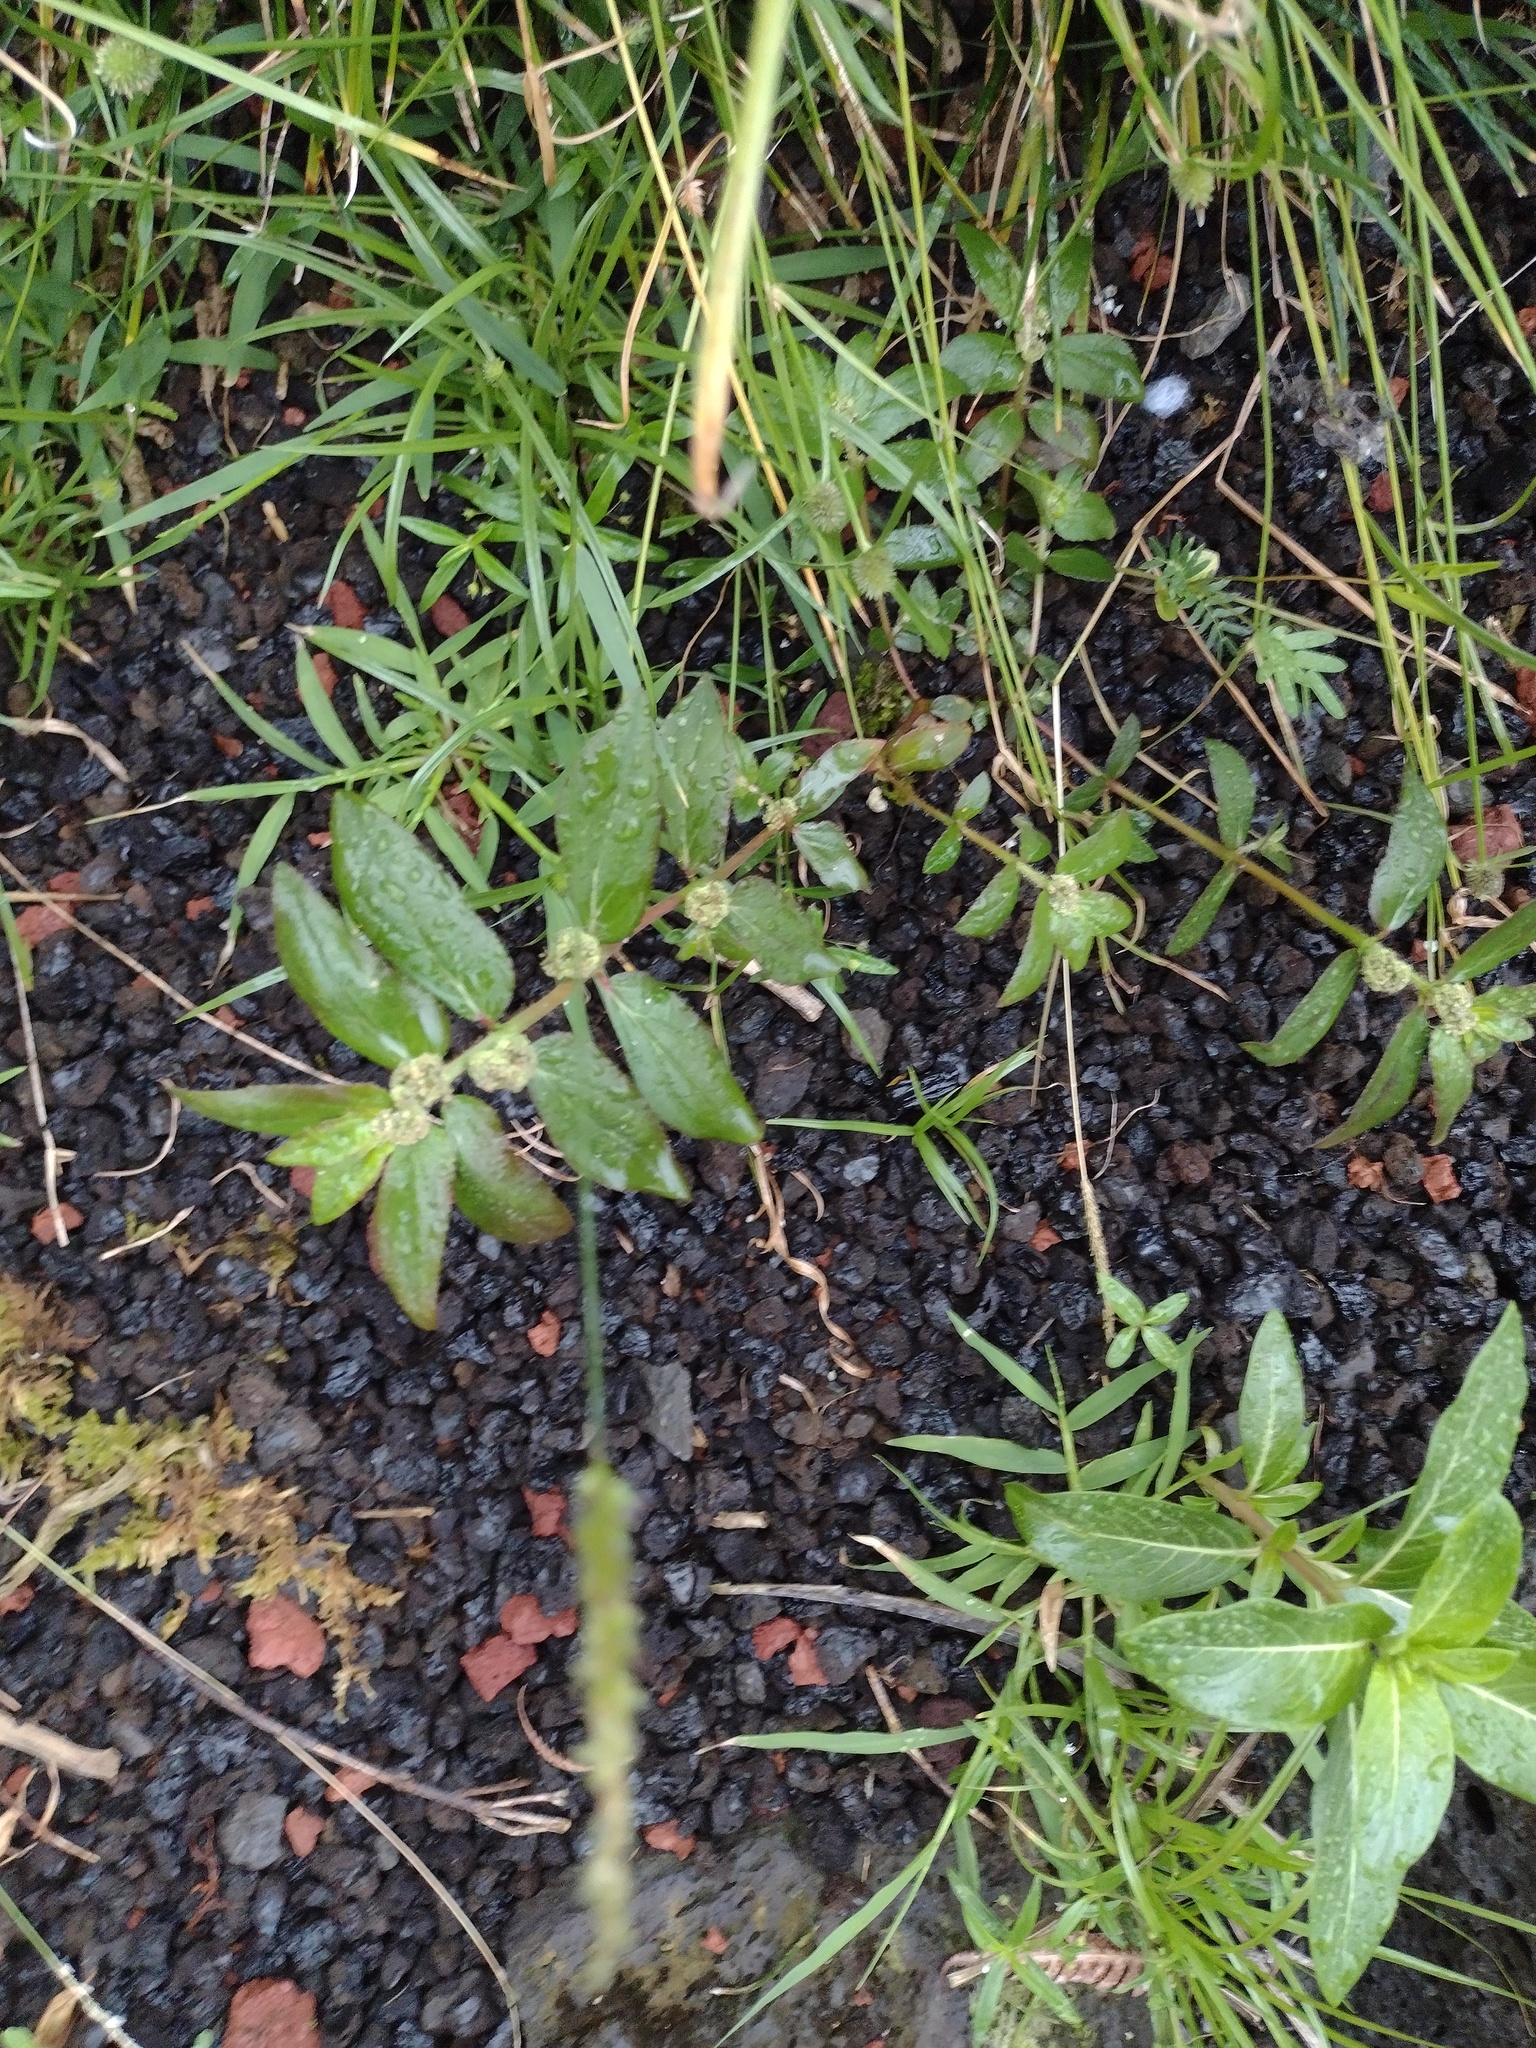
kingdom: Plantae
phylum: Tracheophyta
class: Magnoliopsida
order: Malpighiales
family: Euphorbiaceae
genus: Euphorbia
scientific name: Euphorbia hirta
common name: Pillpod sandmat
